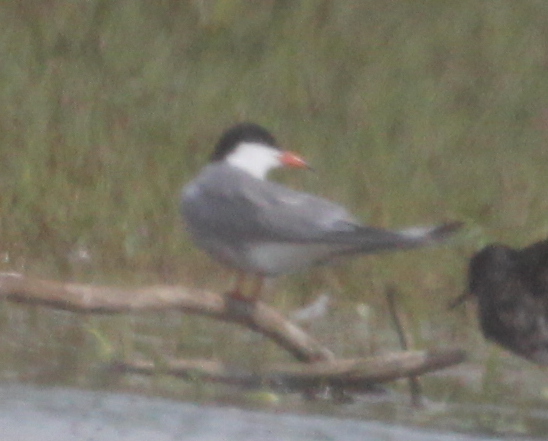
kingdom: Animalia
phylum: Chordata
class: Aves
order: Charadriiformes
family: Laridae
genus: Sterna
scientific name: Sterna hirundo
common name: Common tern
